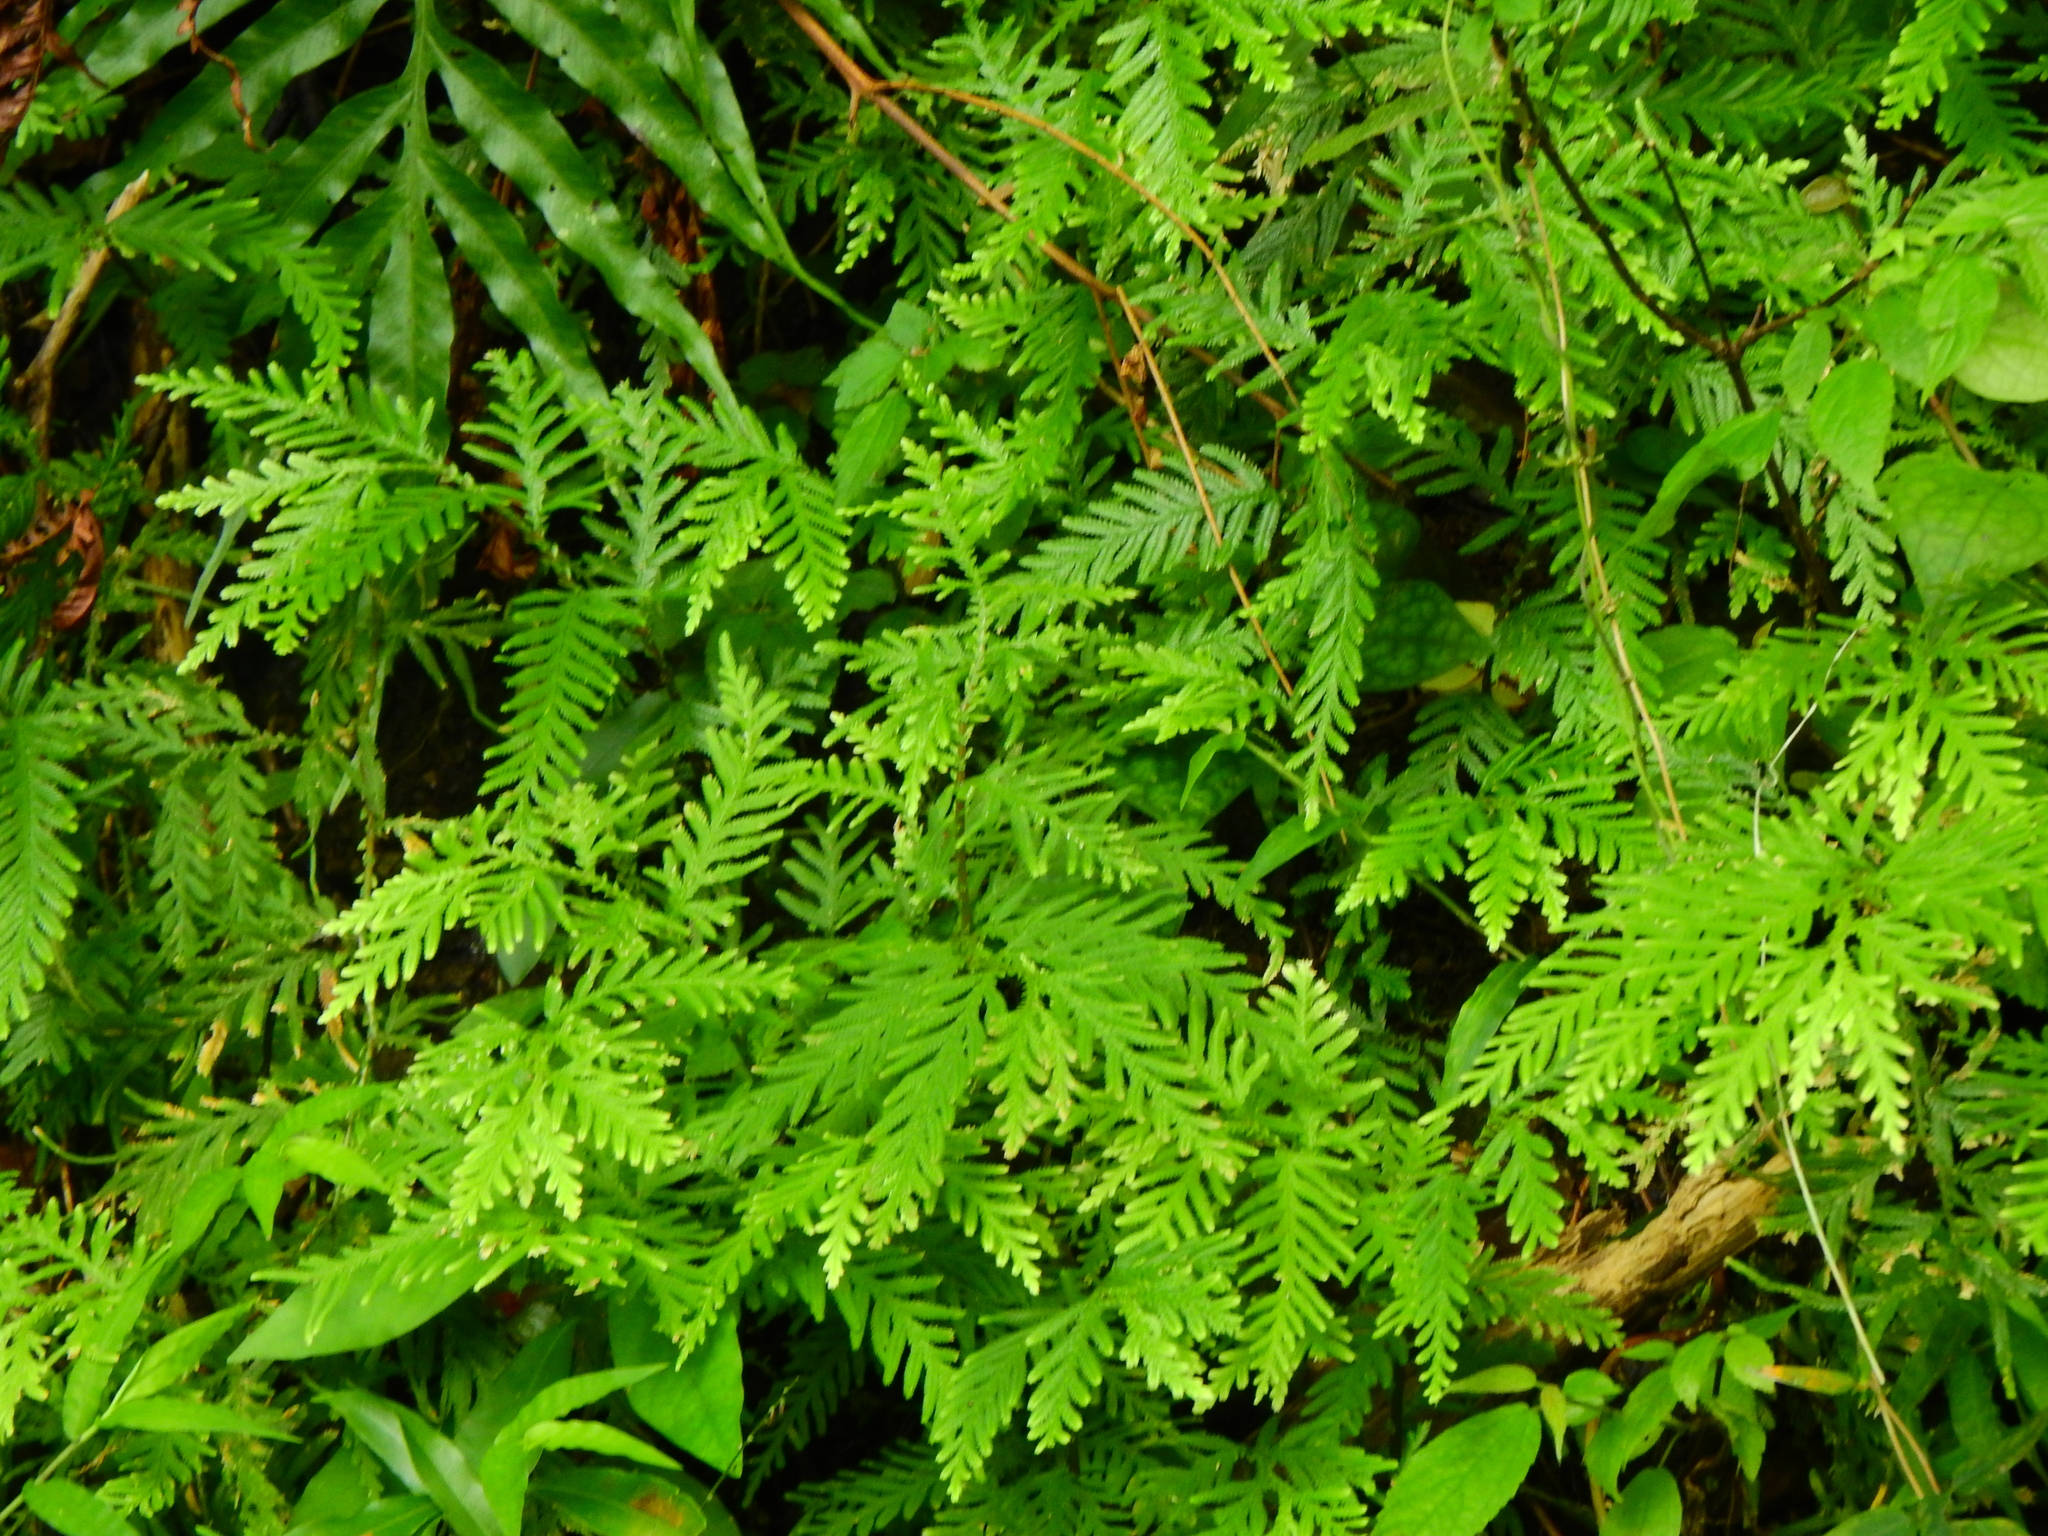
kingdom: Plantae
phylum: Tracheophyta
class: Lycopodiopsida
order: Selaginellales
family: Selaginellaceae
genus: Selaginella
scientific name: Selaginella delicatula
